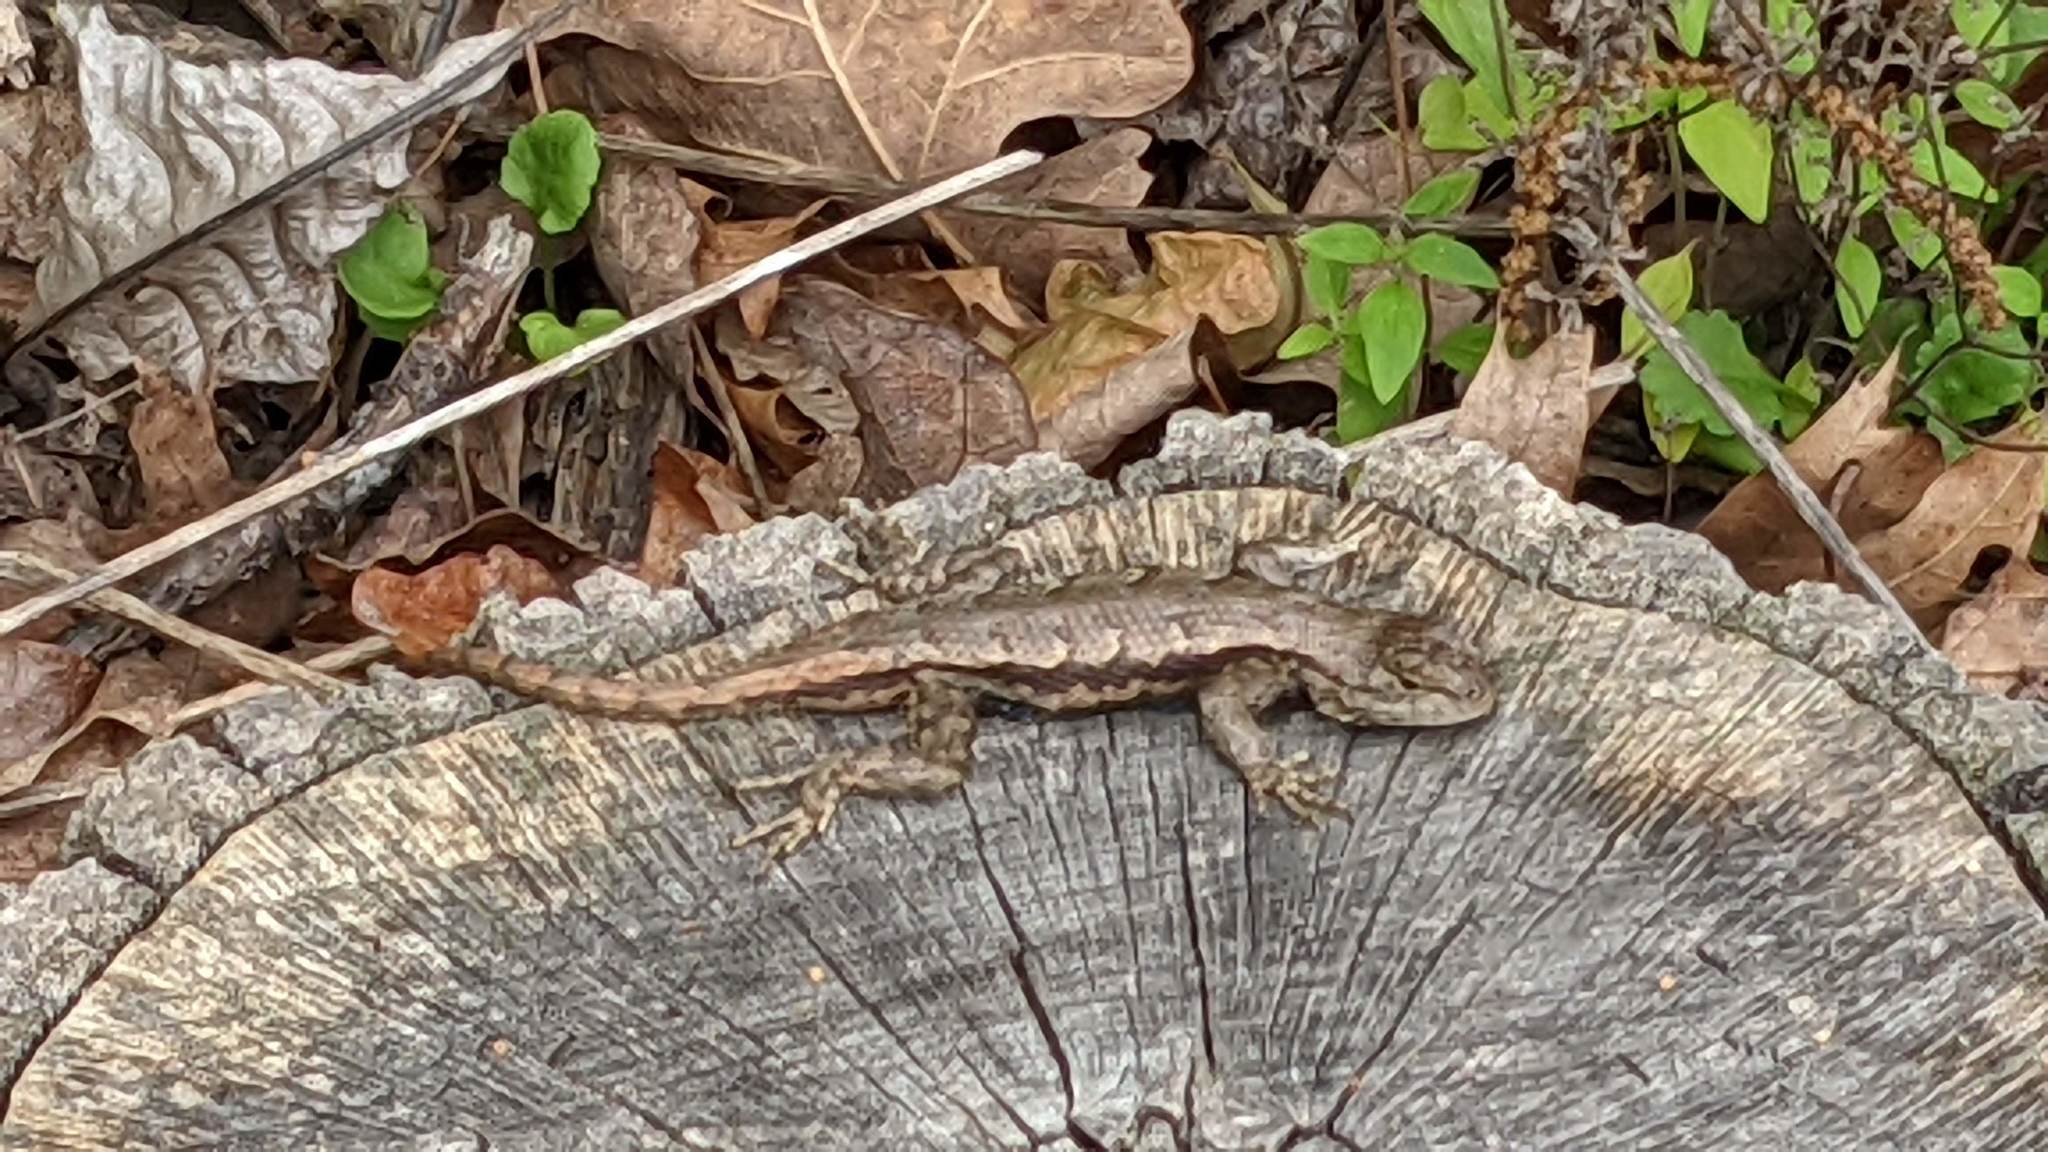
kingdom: Animalia
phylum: Chordata
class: Squamata
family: Phrynosomatidae
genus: Sceloporus
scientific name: Sceloporus consobrinus
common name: Southern prairie lizard
